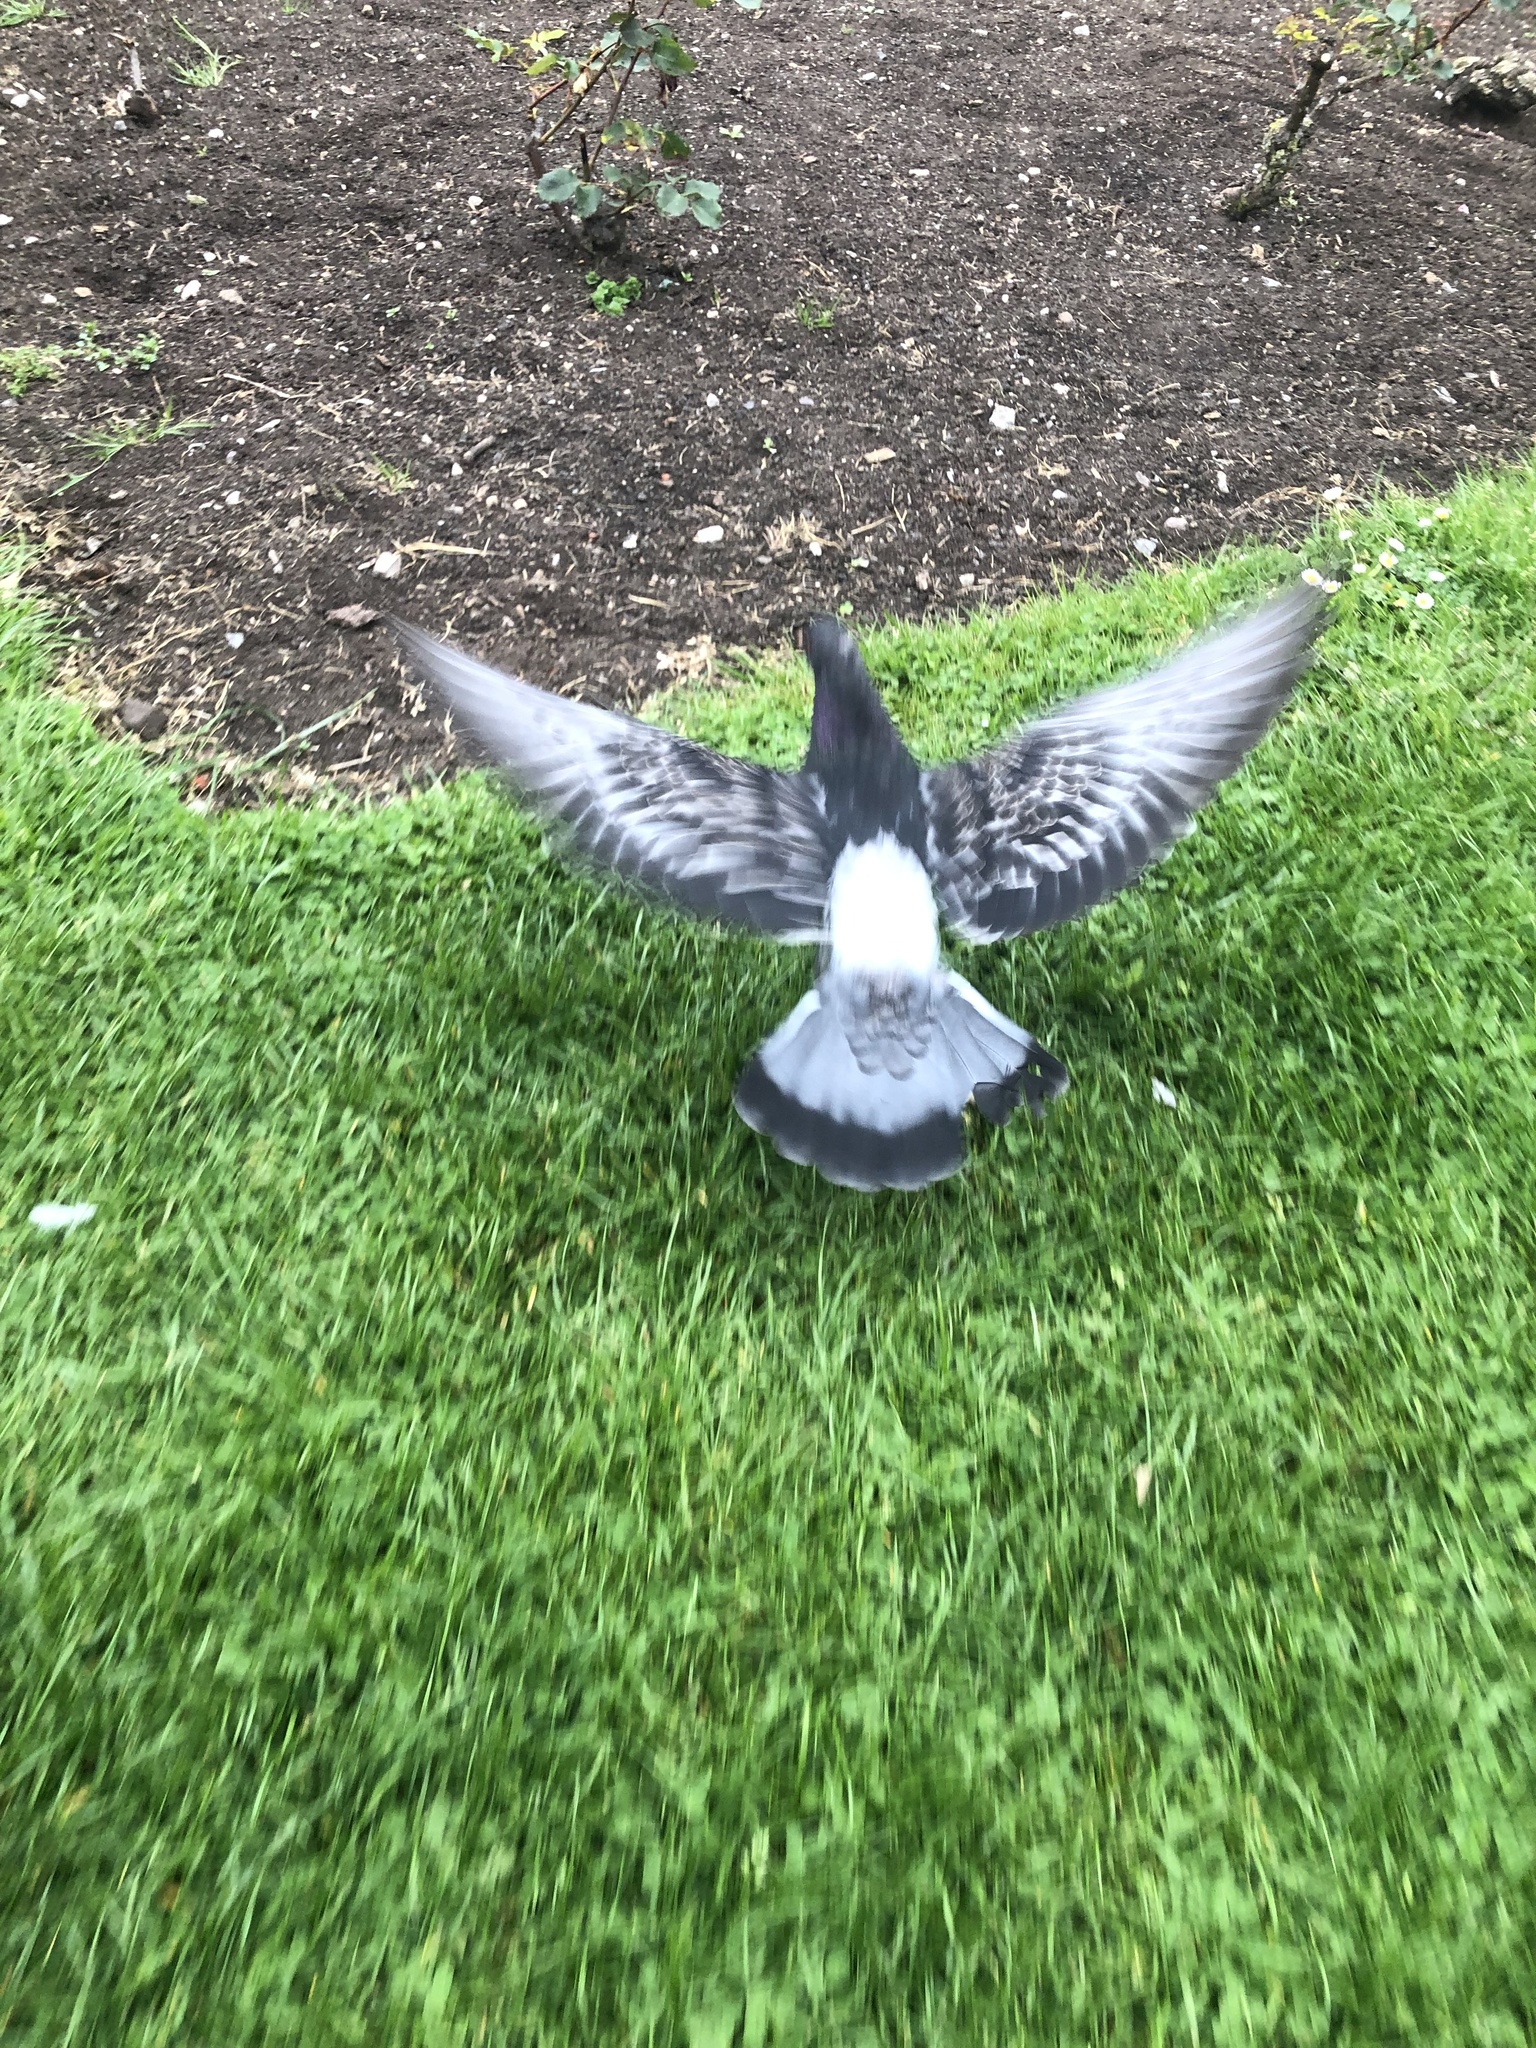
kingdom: Animalia
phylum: Chordata
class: Aves
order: Columbiformes
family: Columbidae
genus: Columba
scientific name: Columba livia
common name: Rock pigeon
